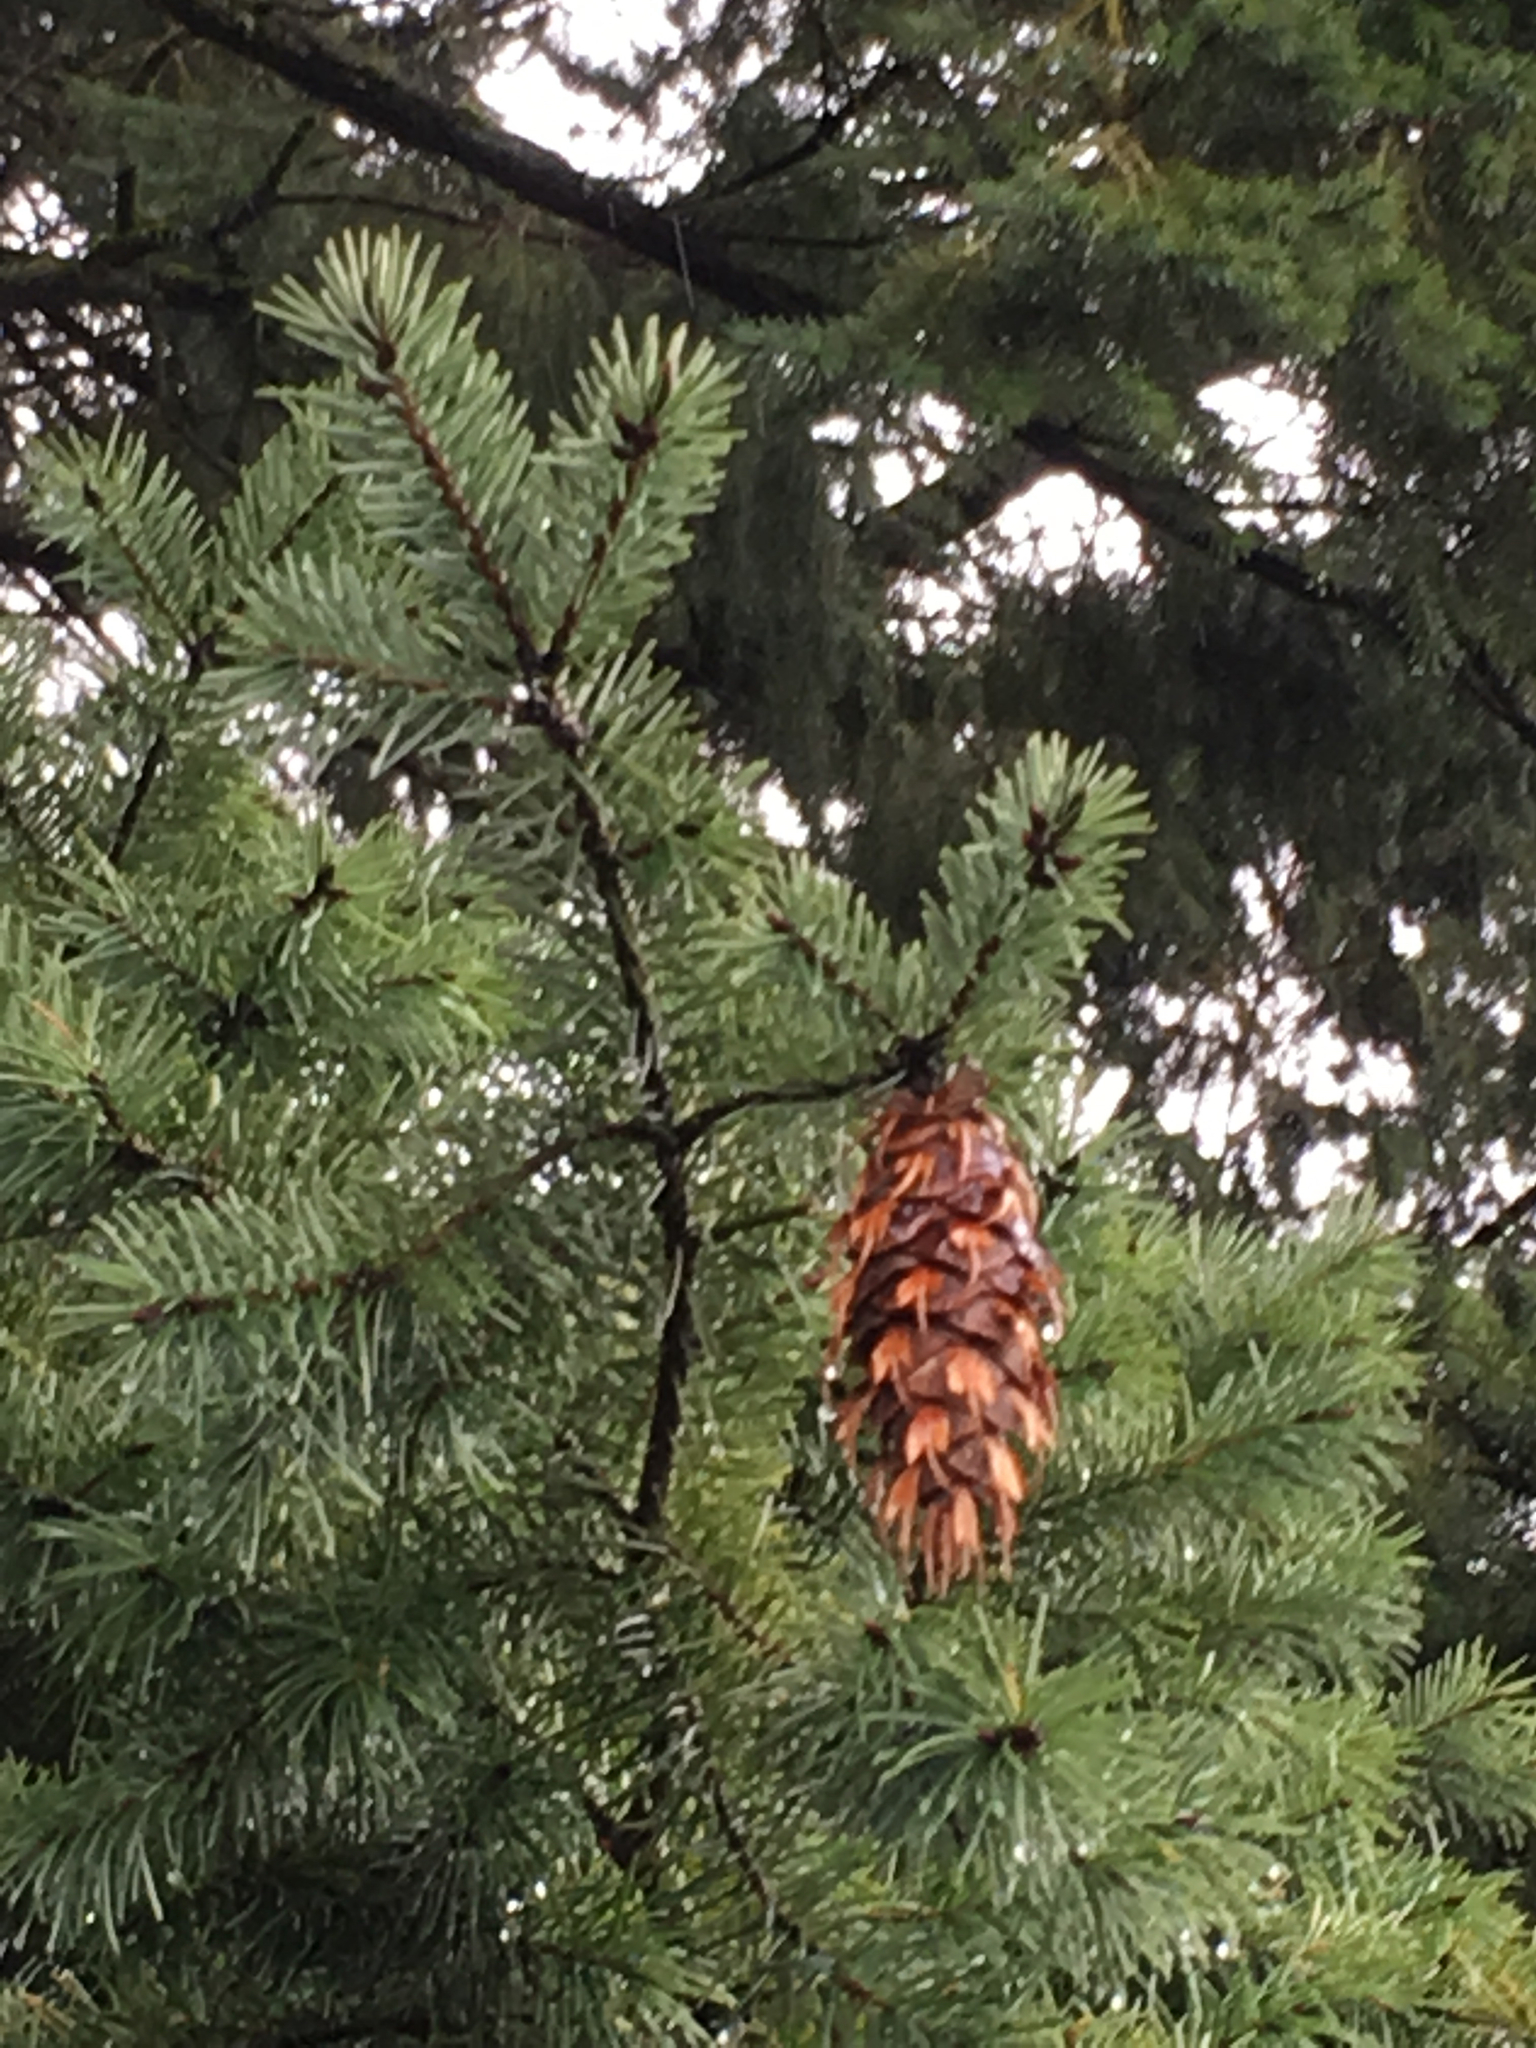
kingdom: Plantae
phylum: Tracheophyta
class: Pinopsida
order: Pinales
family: Pinaceae
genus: Pseudotsuga
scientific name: Pseudotsuga menziesii
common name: Douglas fir
